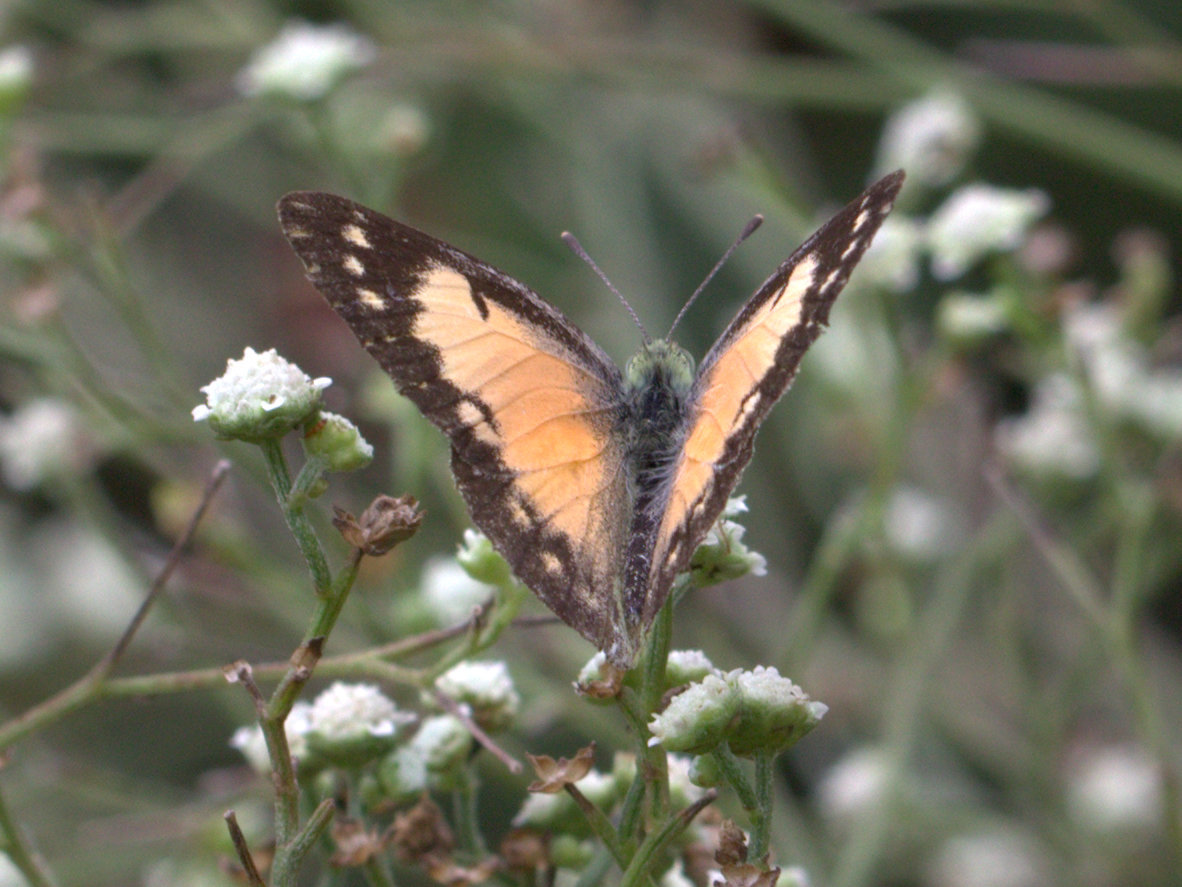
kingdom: Animalia
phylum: Arthropoda
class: Insecta
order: Lepidoptera
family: Pieridae
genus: Colotis
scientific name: Colotis amata
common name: Small salmon arab
